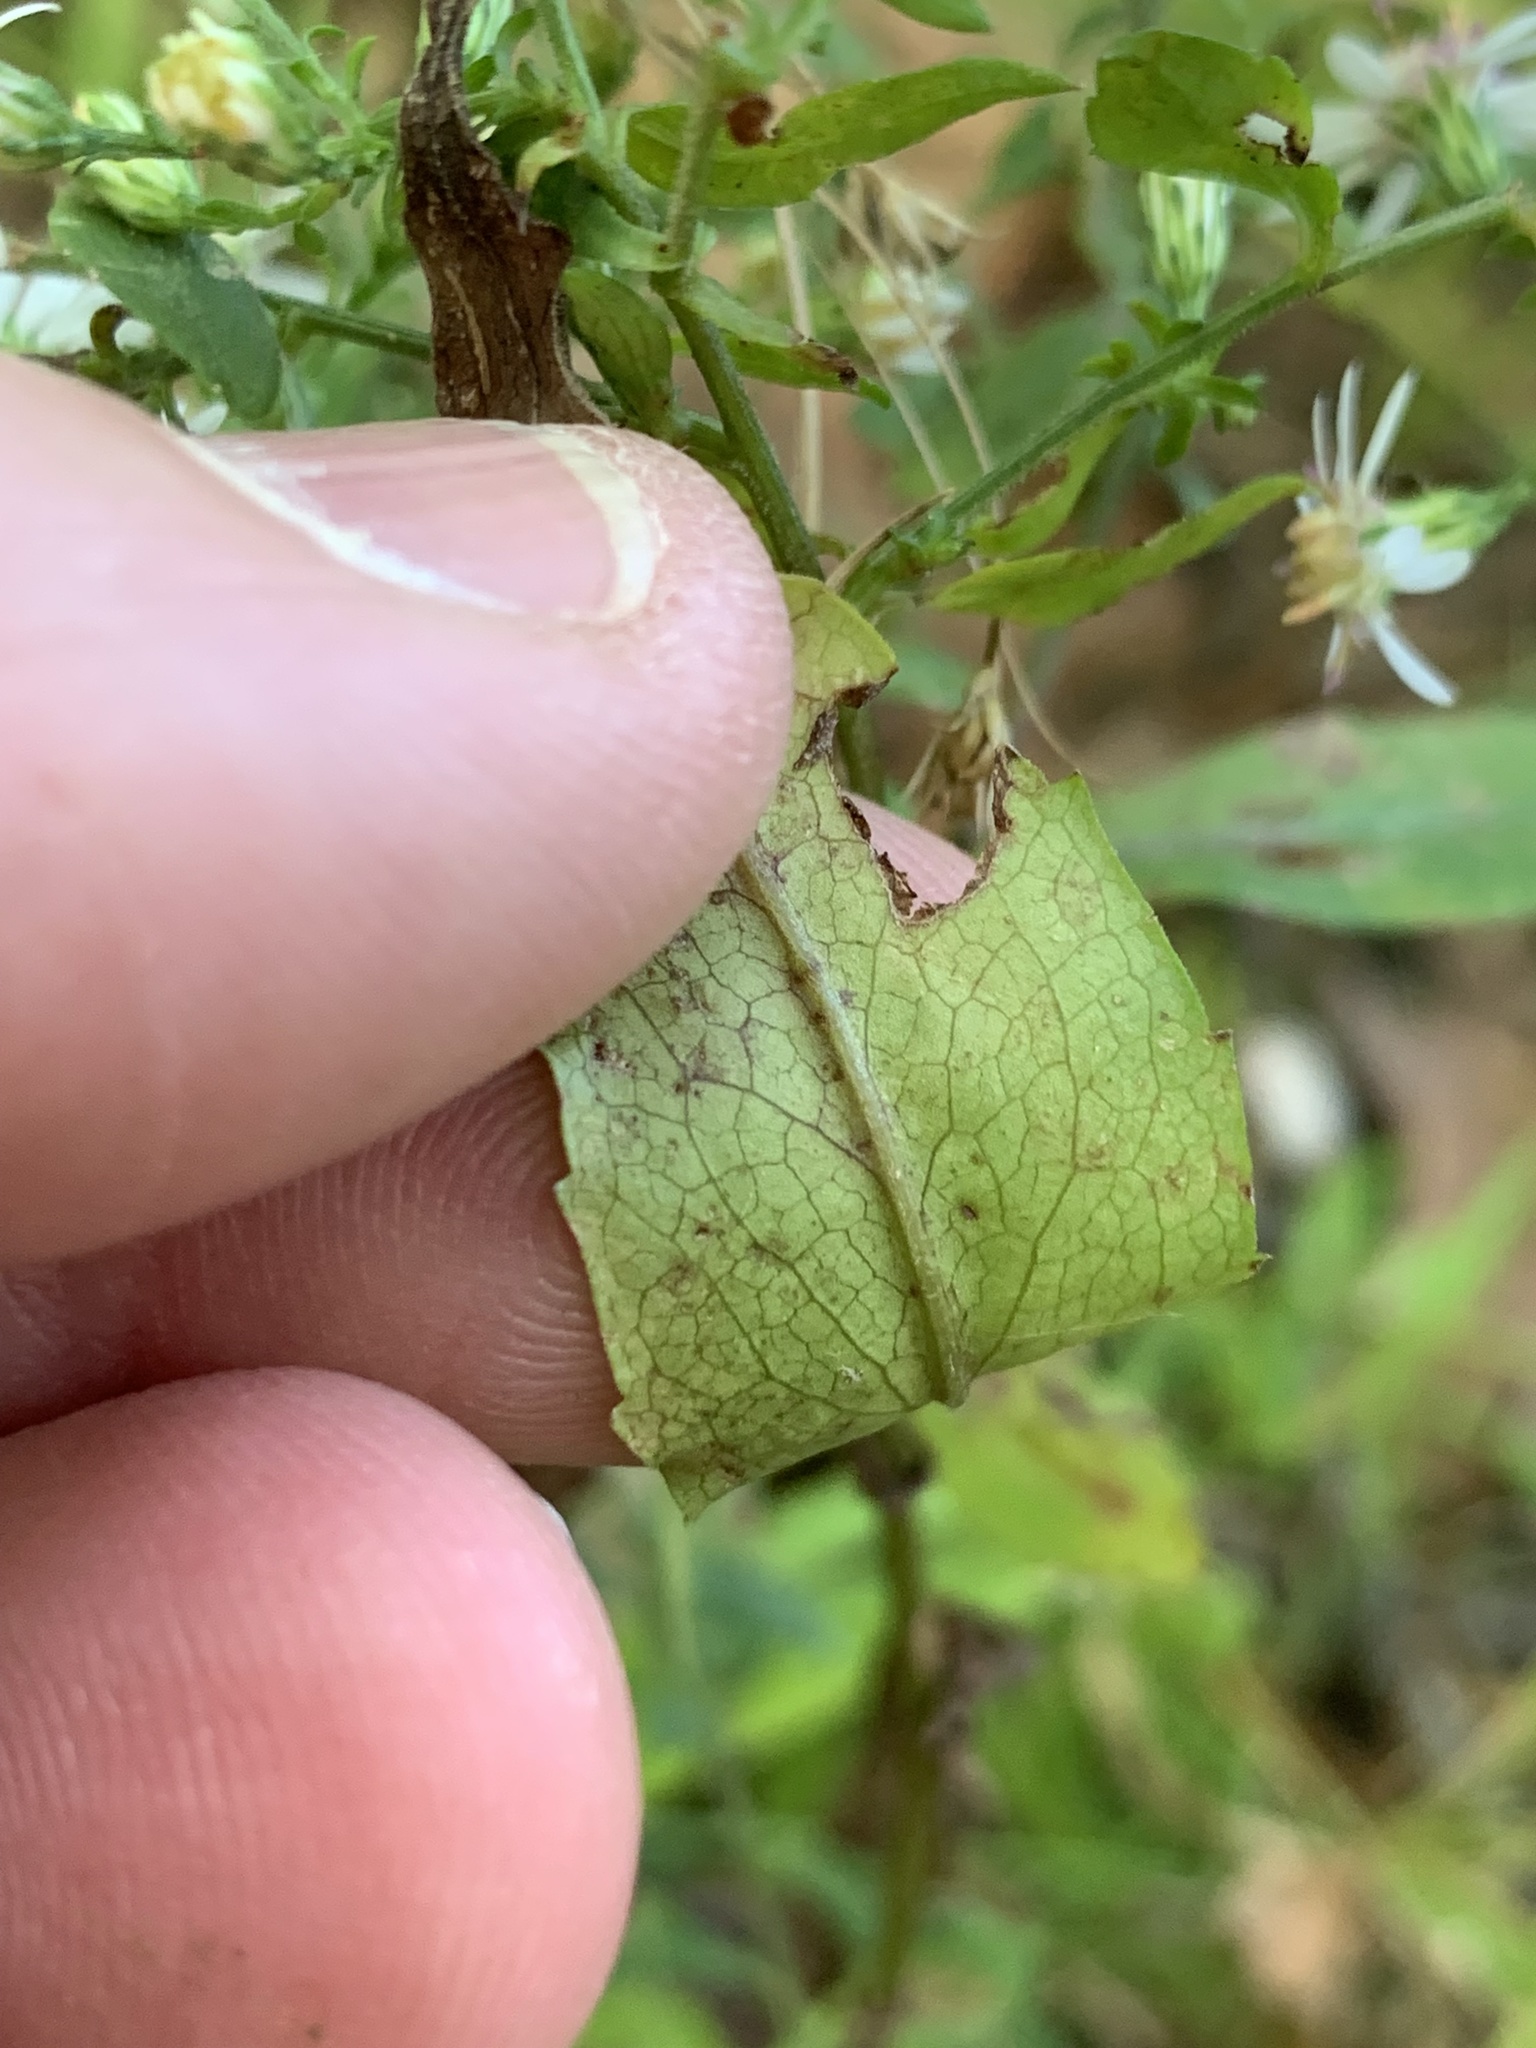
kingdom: Plantae
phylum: Tracheophyta
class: Magnoliopsida
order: Asterales
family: Asteraceae
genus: Symphyotrichum
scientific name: Symphyotrichum lateriflorum
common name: Calico aster
